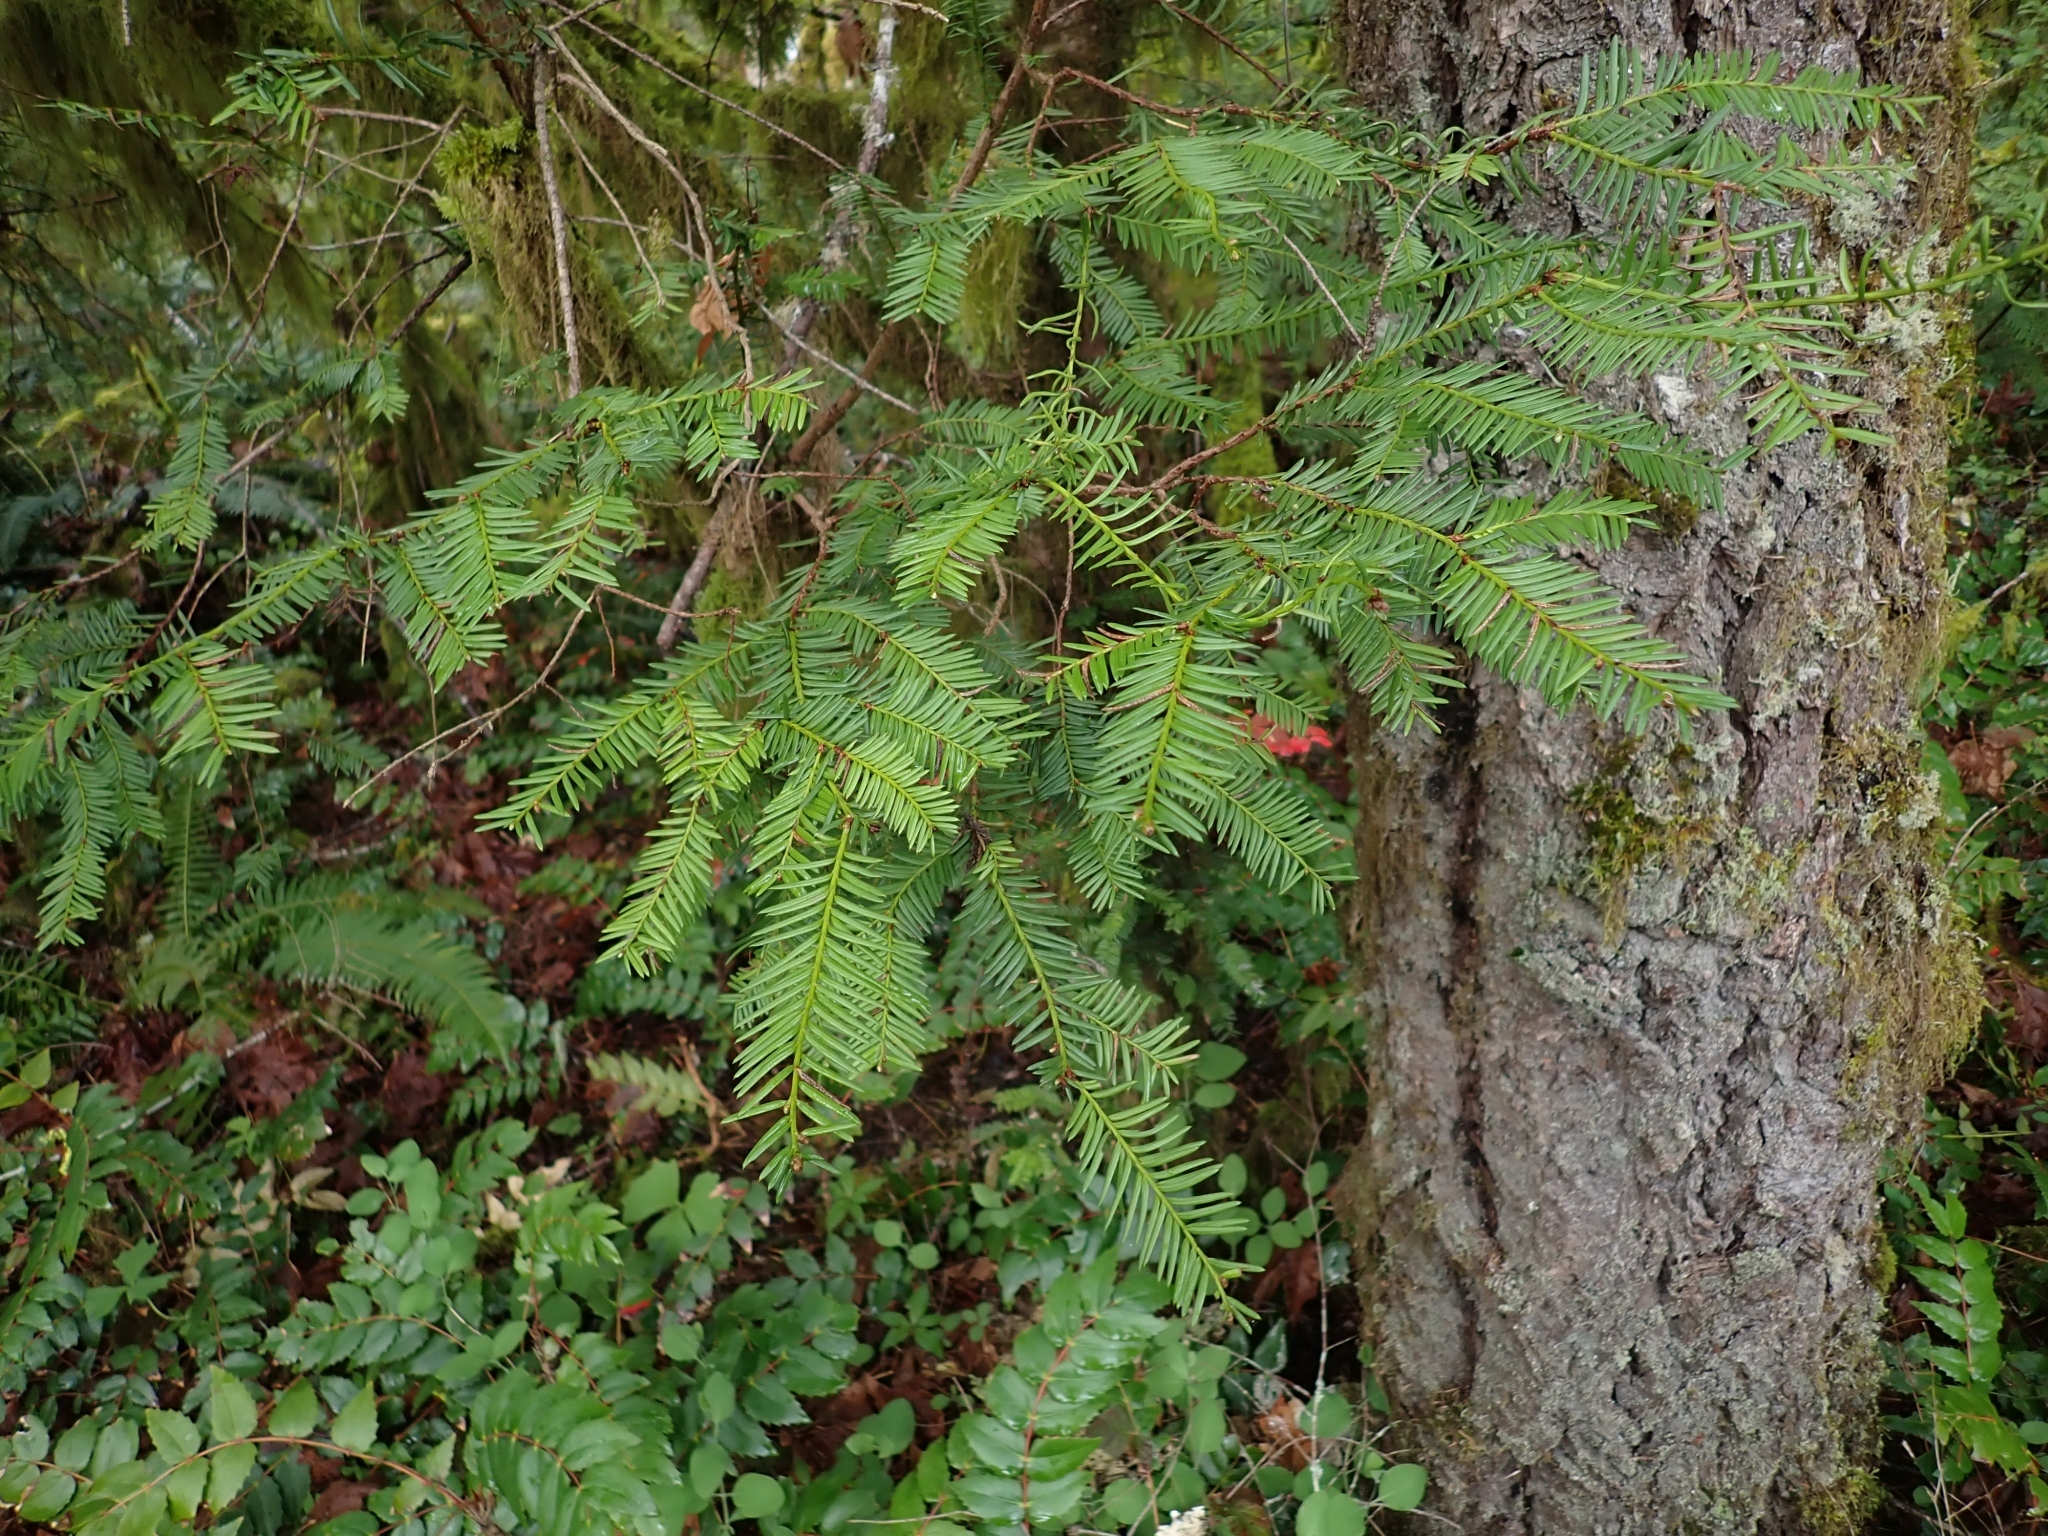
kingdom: Plantae
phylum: Tracheophyta
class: Pinopsida
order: Pinales
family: Taxaceae
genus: Taxus
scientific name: Taxus brevifolia
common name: Pacific yew
